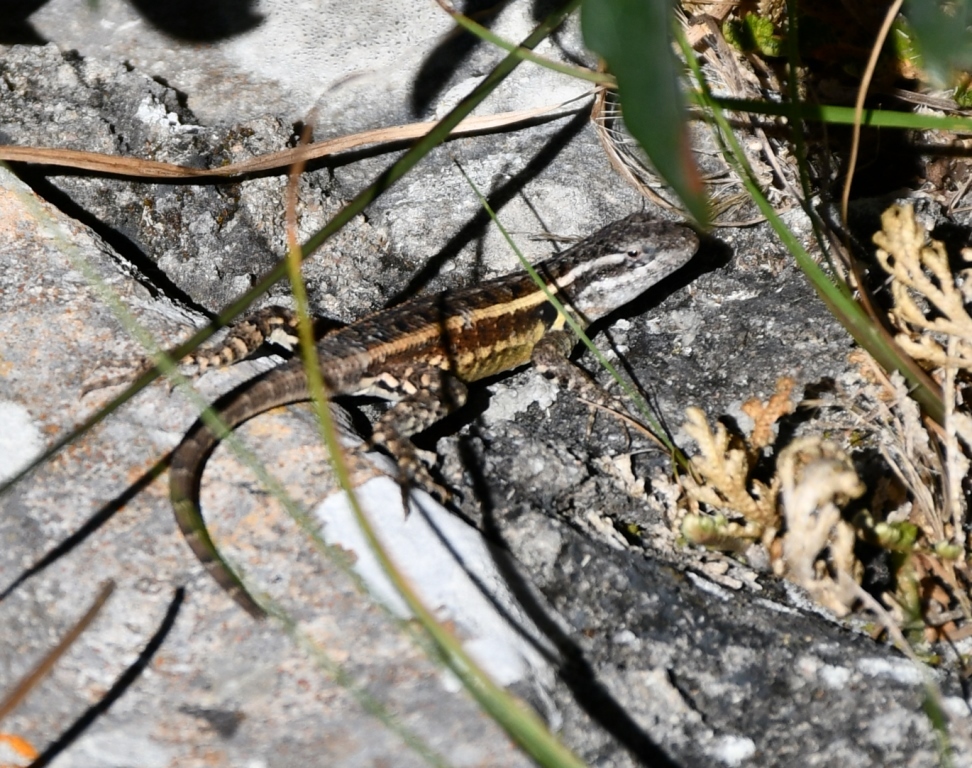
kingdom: Animalia
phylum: Chordata
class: Squamata
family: Phrynosomatidae
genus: Sceloporus
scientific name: Sceloporus variabilis
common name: Rosebelly lizard
